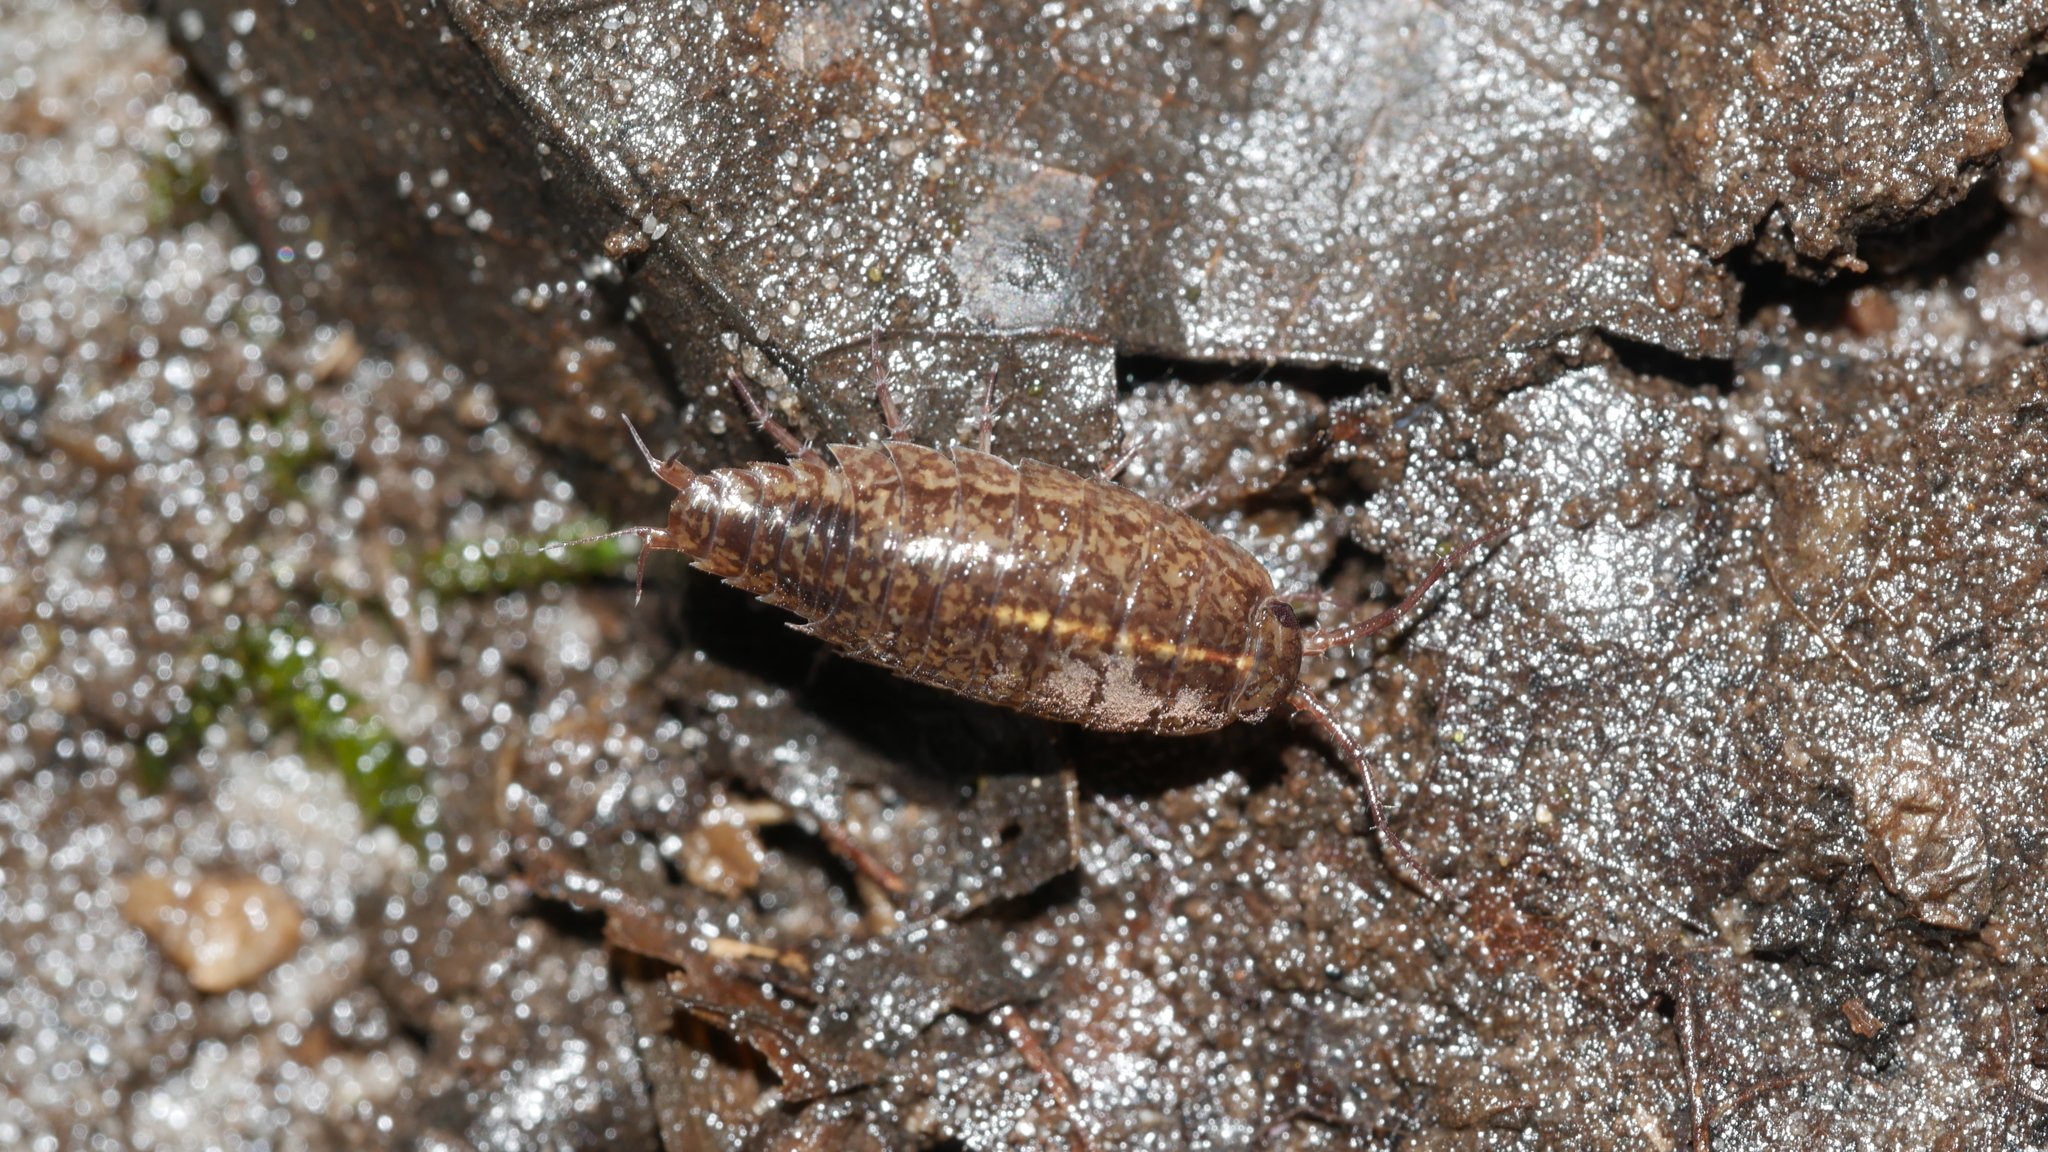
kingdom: Animalia
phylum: Arthropoda
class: Malacostraca
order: Isopoda
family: Ligiidae
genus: Ligidium
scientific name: Ligidium elrodii
